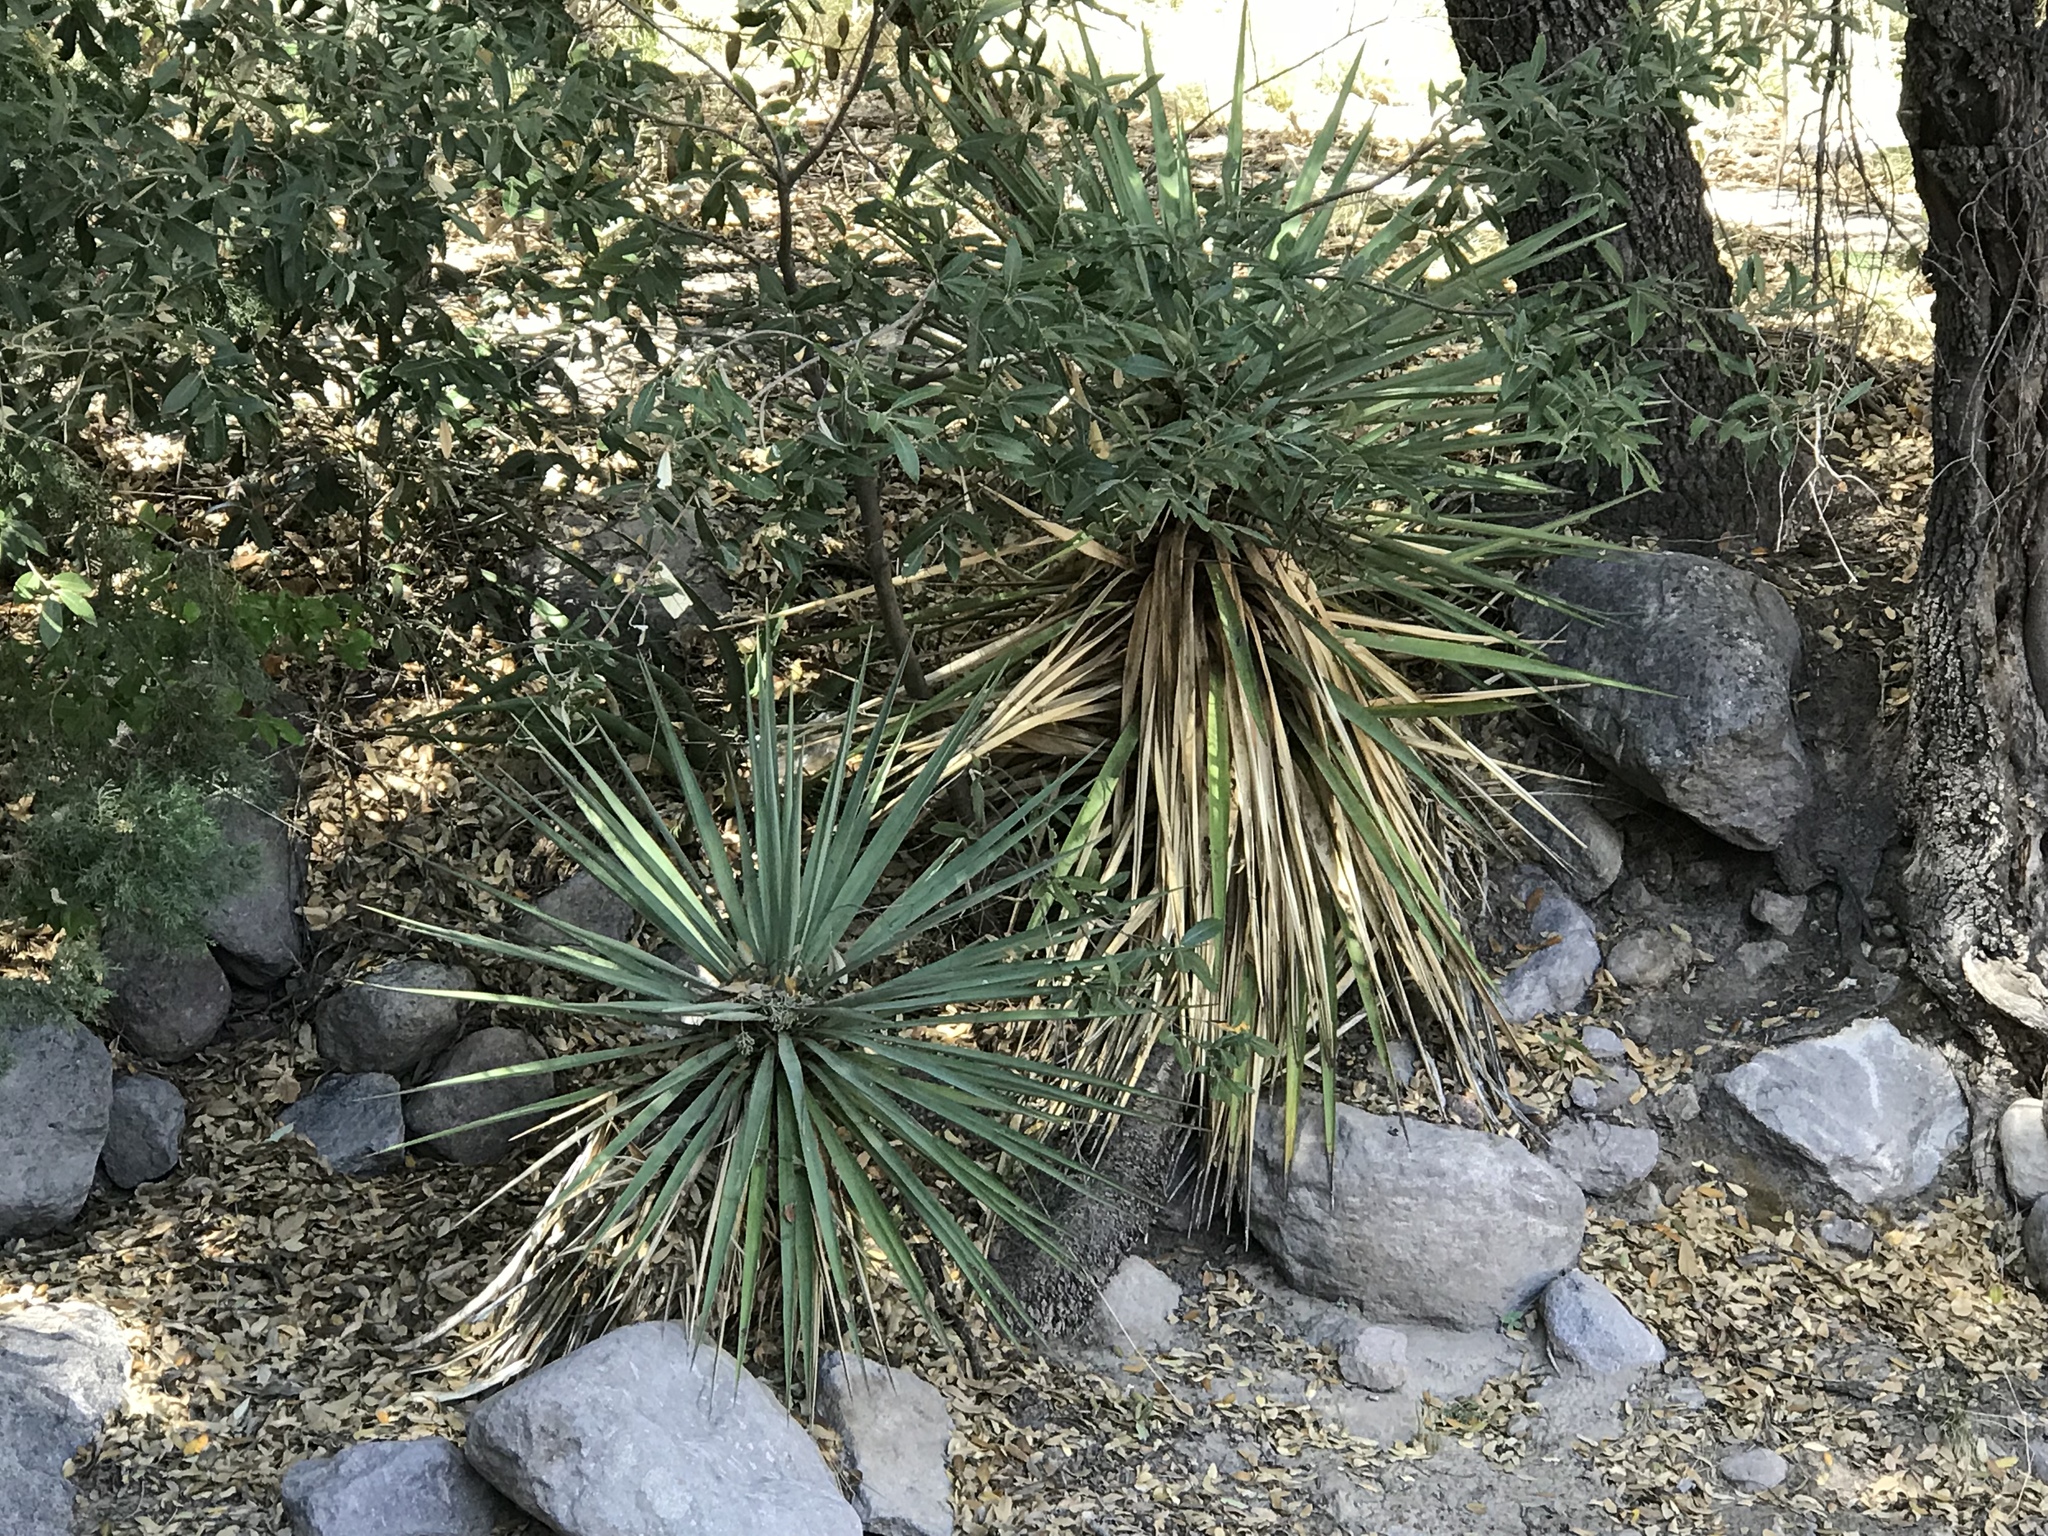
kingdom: Plantae
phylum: Tracheophyta
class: Liliopsida
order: Asparagales
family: Asparagaceae
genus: Yucca
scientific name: Yucca madrensis
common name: Hoary yucca
